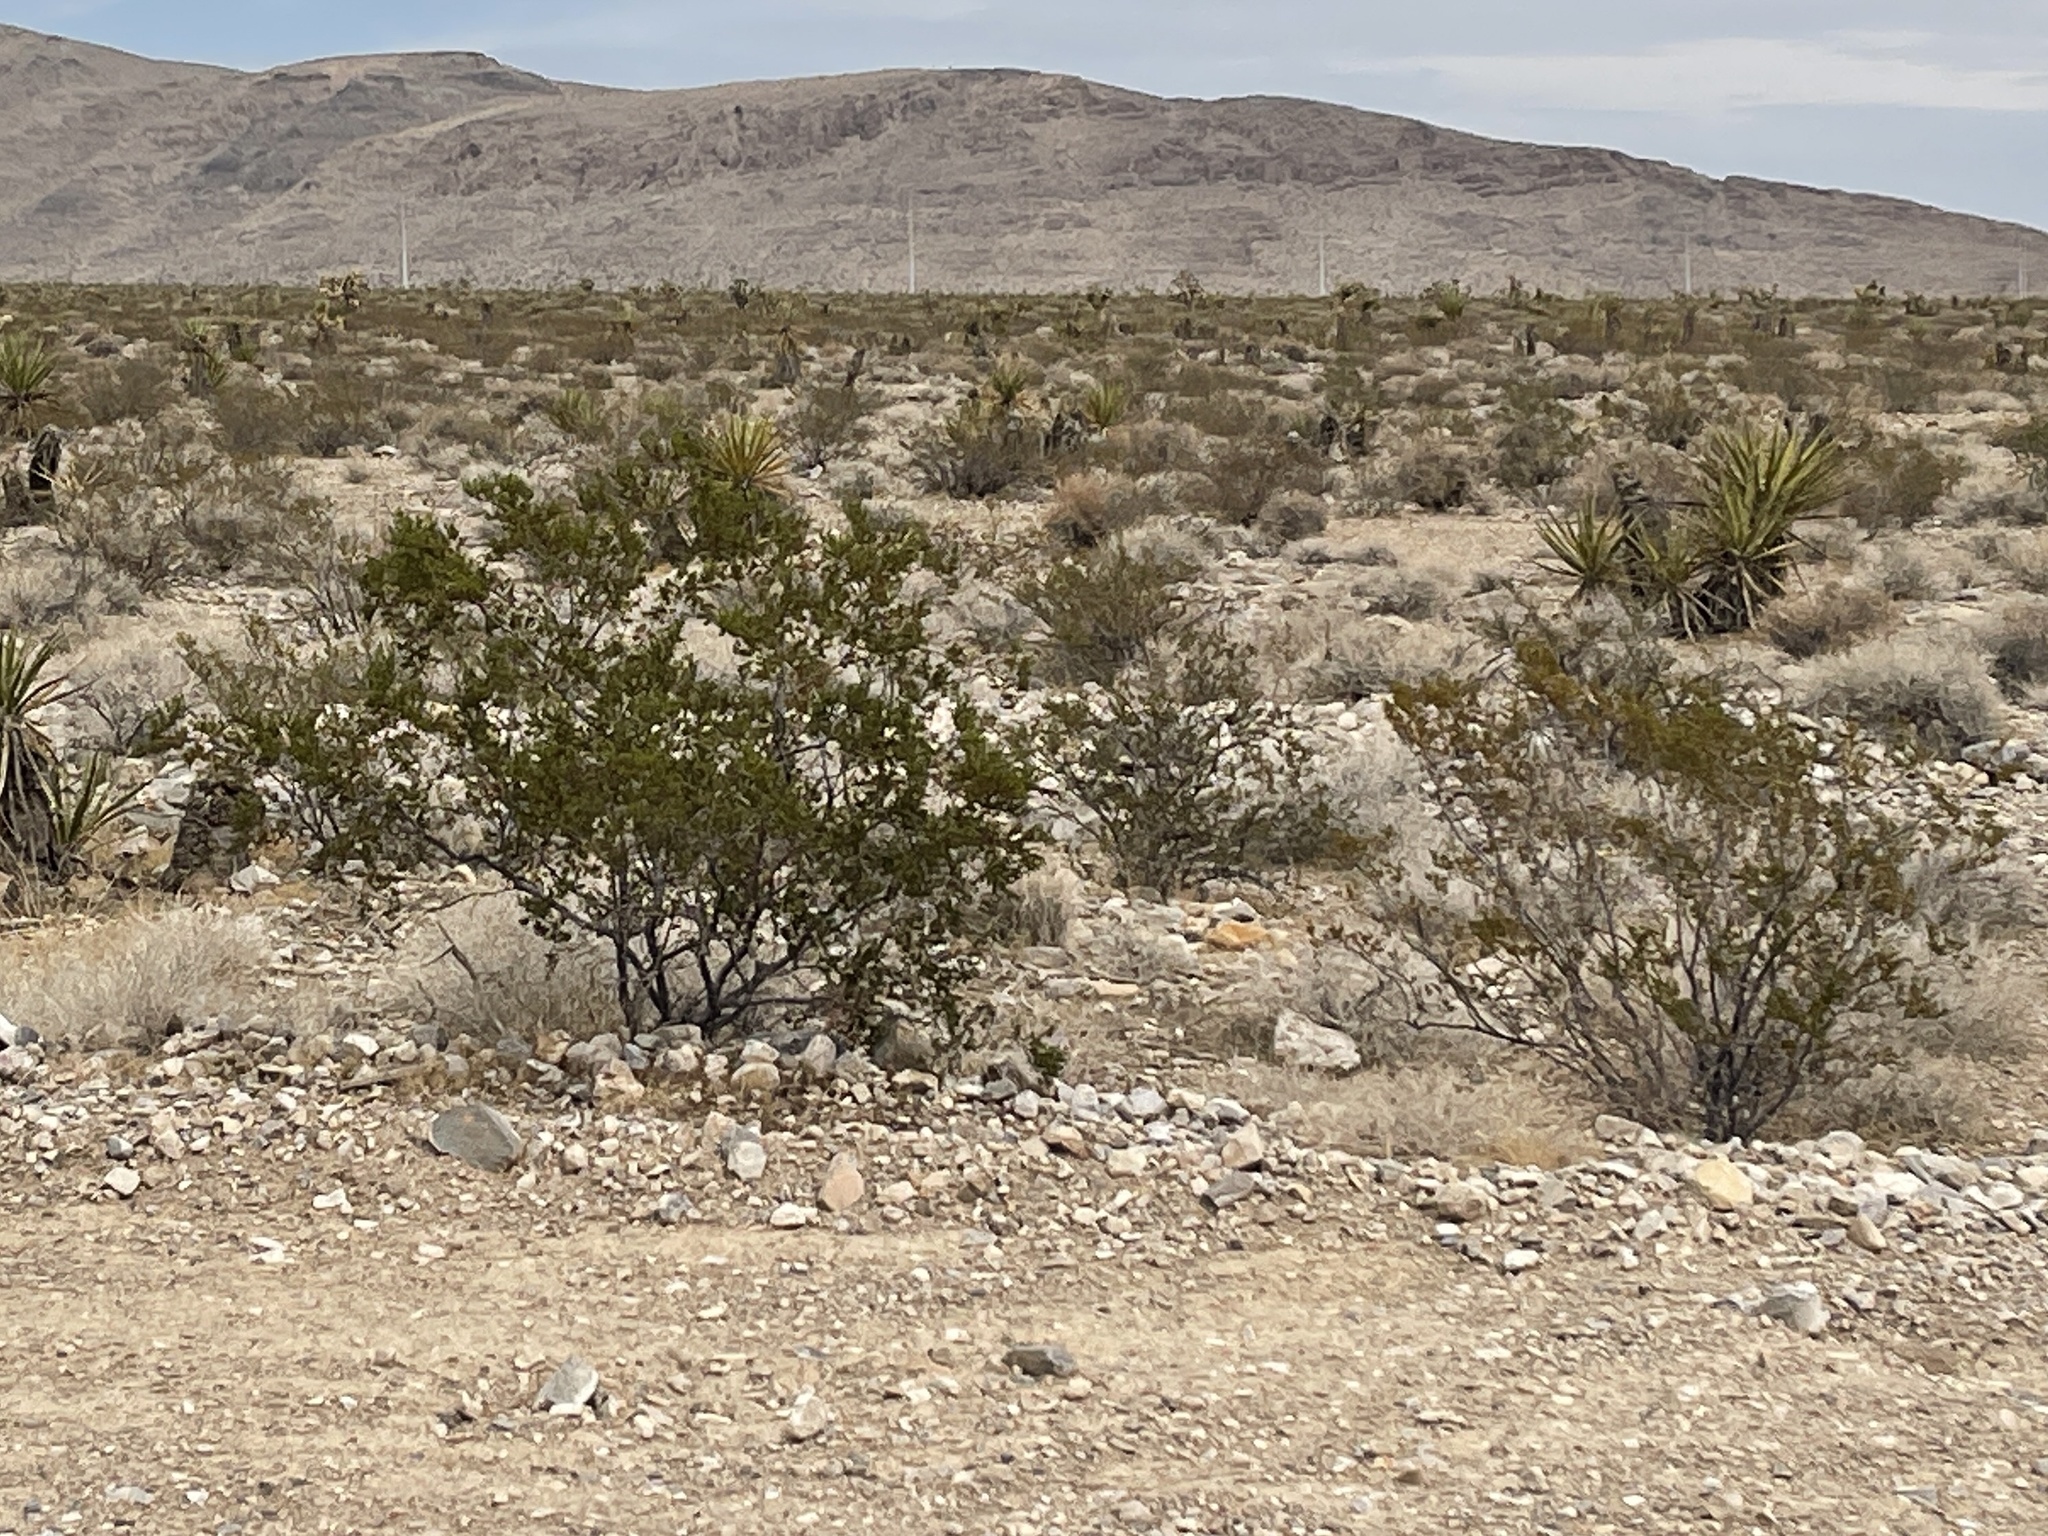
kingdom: Plantae
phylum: Tracheophyta
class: Magnoliopsida
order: Zygophyllales
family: Zygophyllaceae
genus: Larrea
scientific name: Larrea tridentata
